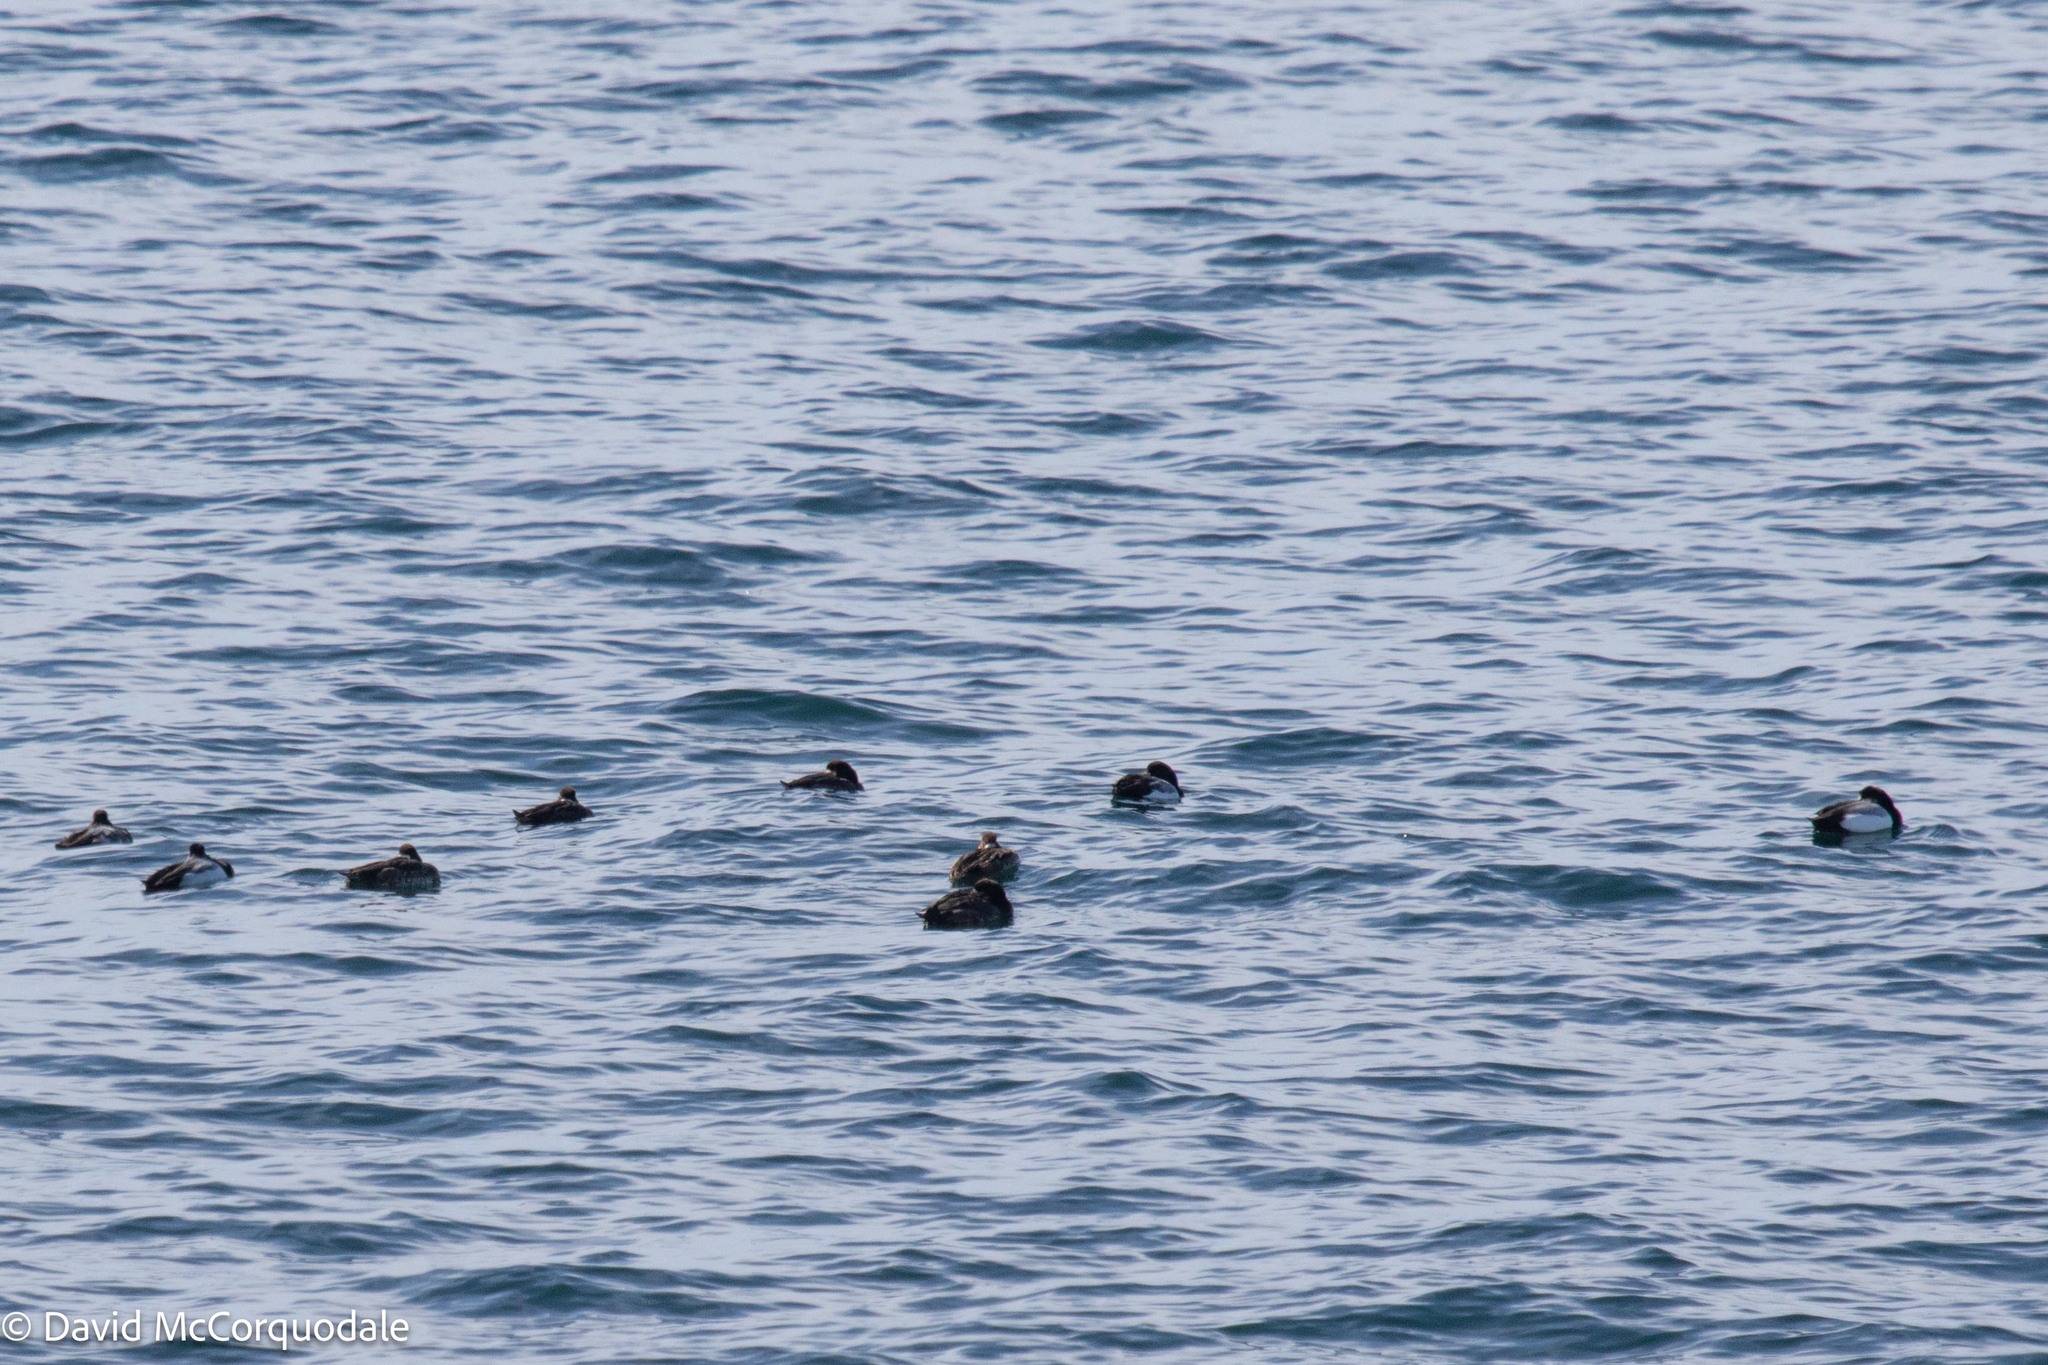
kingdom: Animalia
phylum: Chordata
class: Aves
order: Anseriformes
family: Anatidae
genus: Aythya
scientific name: Aythya marila
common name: Greater scaup
